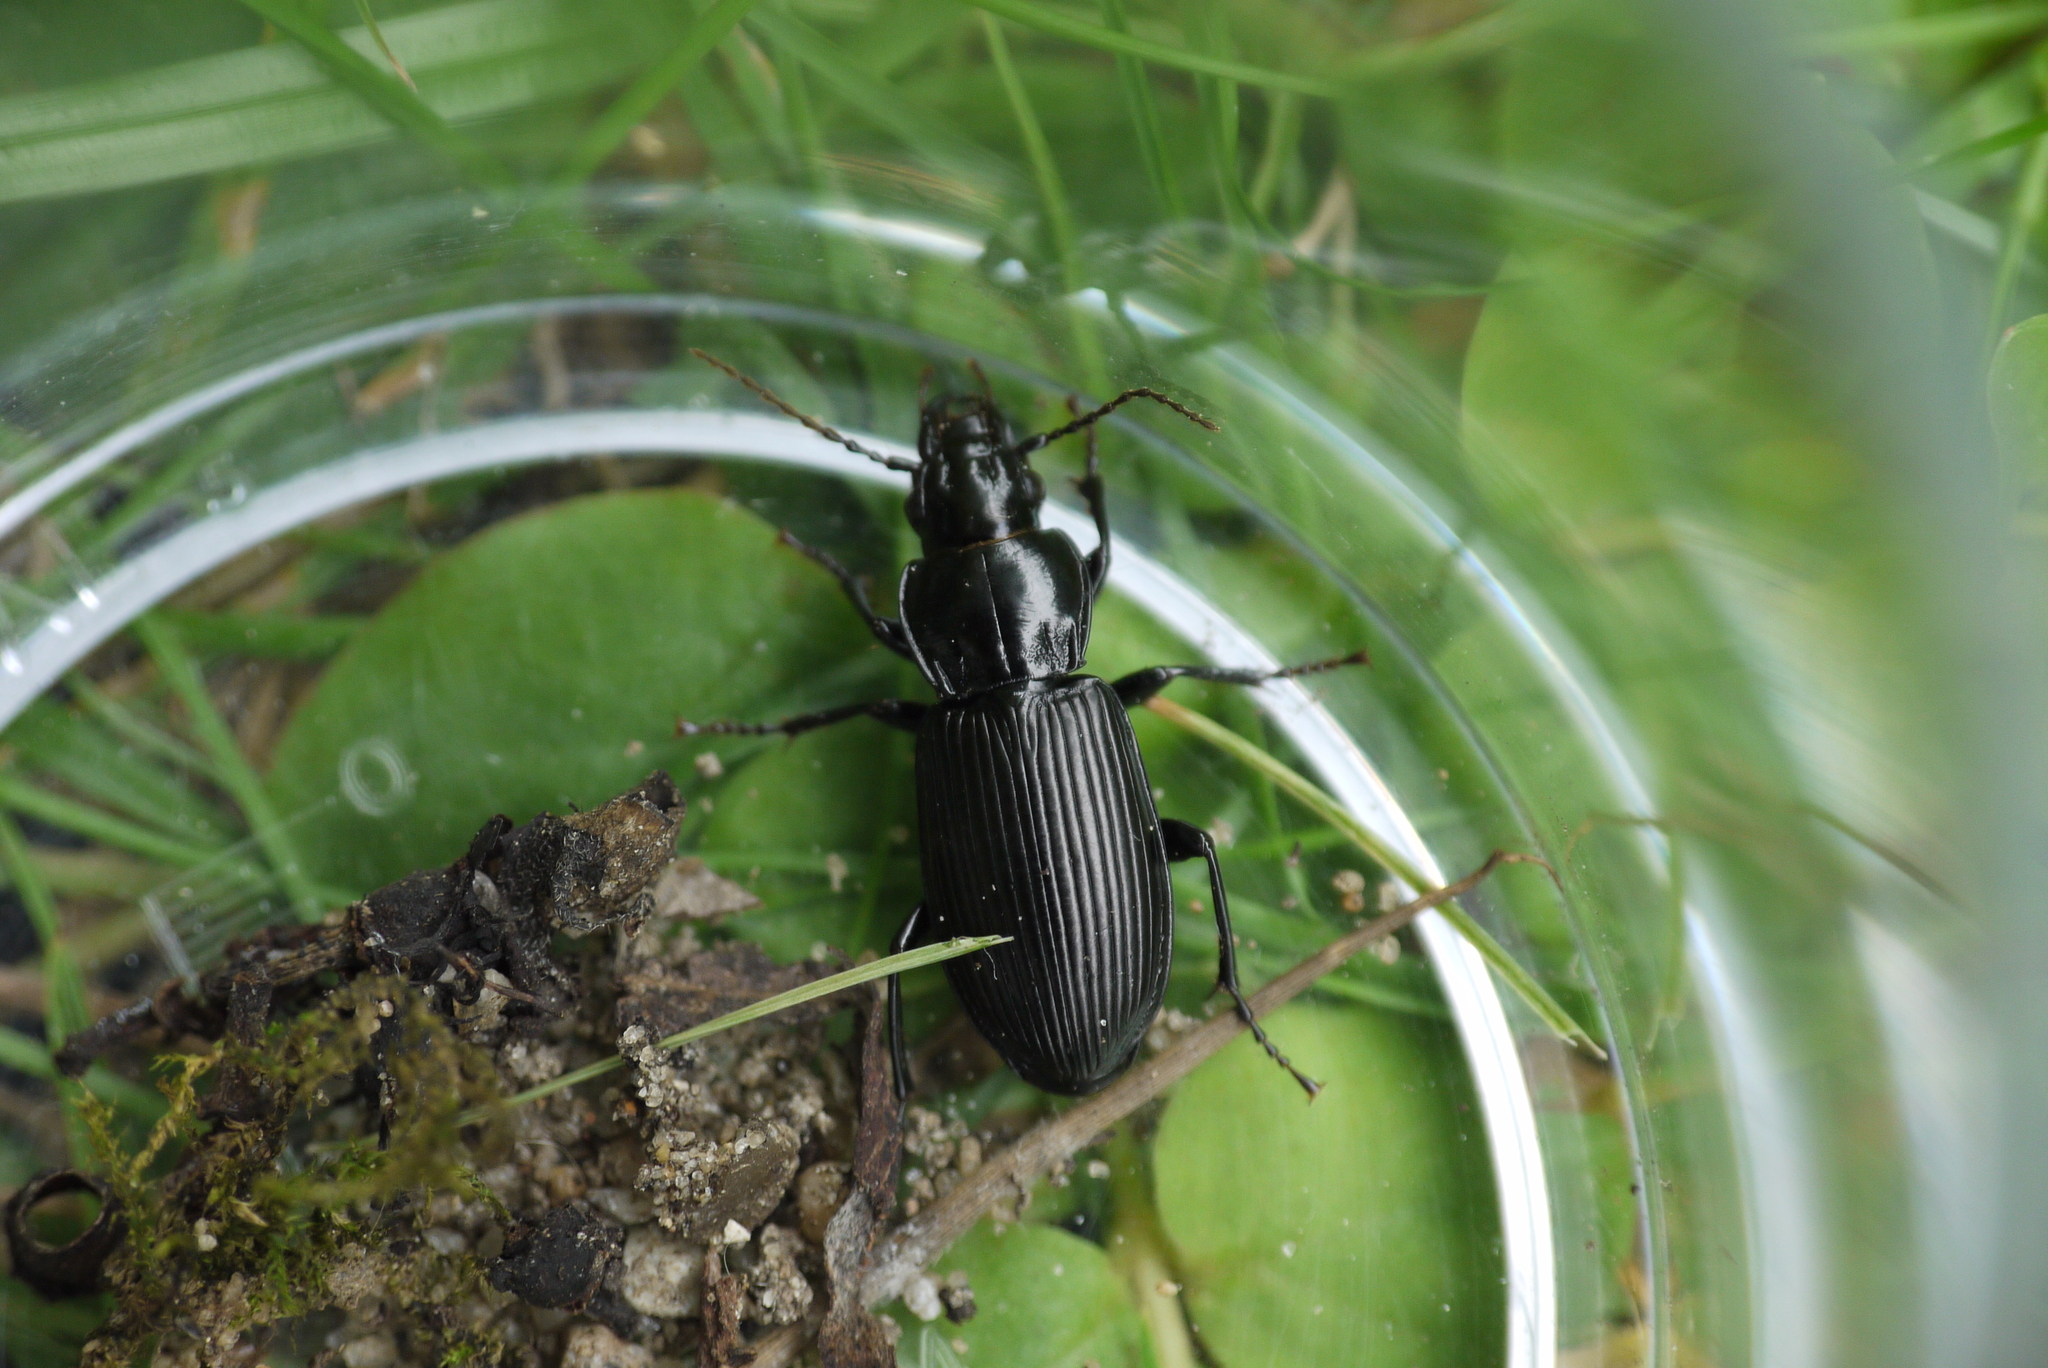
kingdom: Animalia
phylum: Arthropoda
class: Insecta
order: Coleoptera
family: Carabidae
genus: Pterostichus
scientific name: Pterostichus melanarius
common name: European dark harp ground beetle
